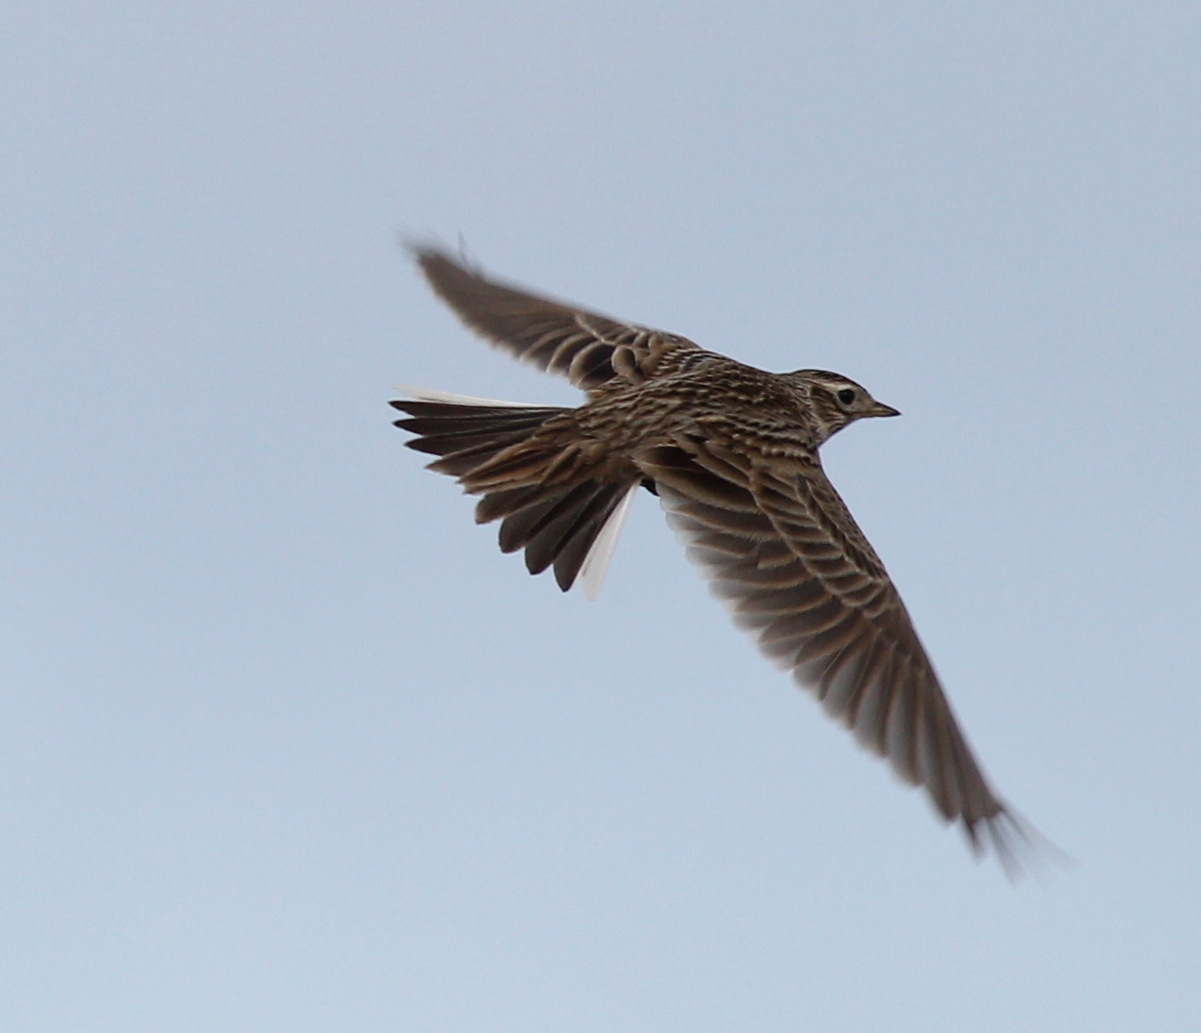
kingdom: Animalia
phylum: Chordata
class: Aves
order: Passeriformes
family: Alaudidae
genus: Alauda
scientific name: Alauda arvensis
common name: Eurasian skylark
